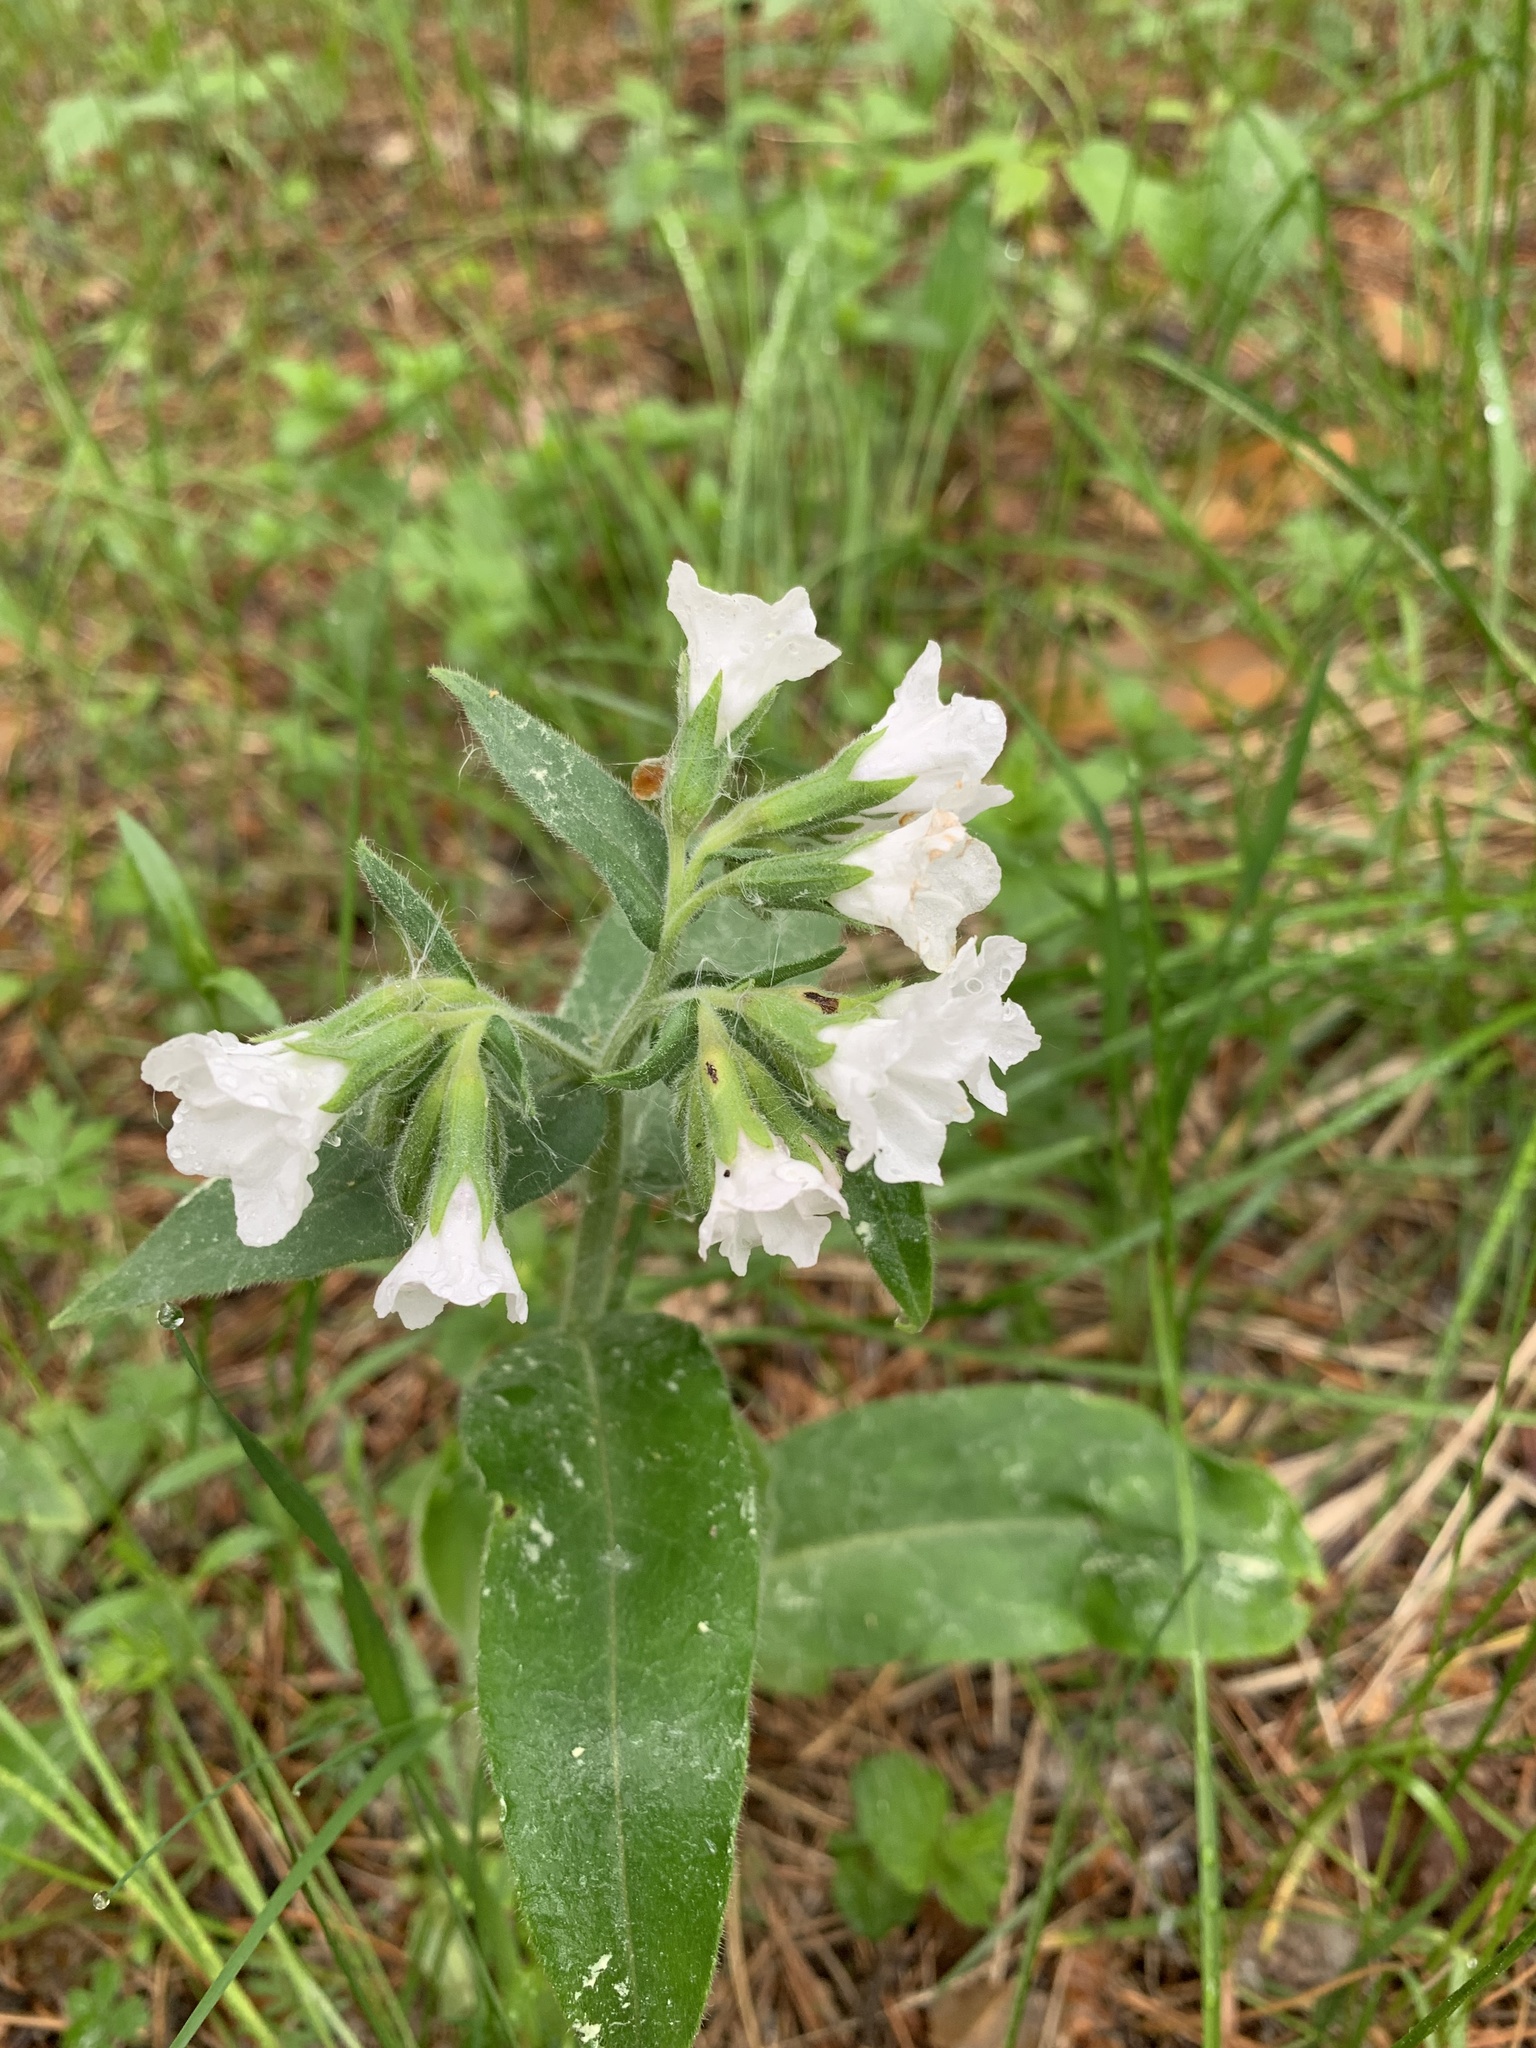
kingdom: Plantae
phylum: Tracheophyta
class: Magnoliopsida
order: Boraginales
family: Boraginaceae
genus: Pulmonaria
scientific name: Pulmonaria mollis
